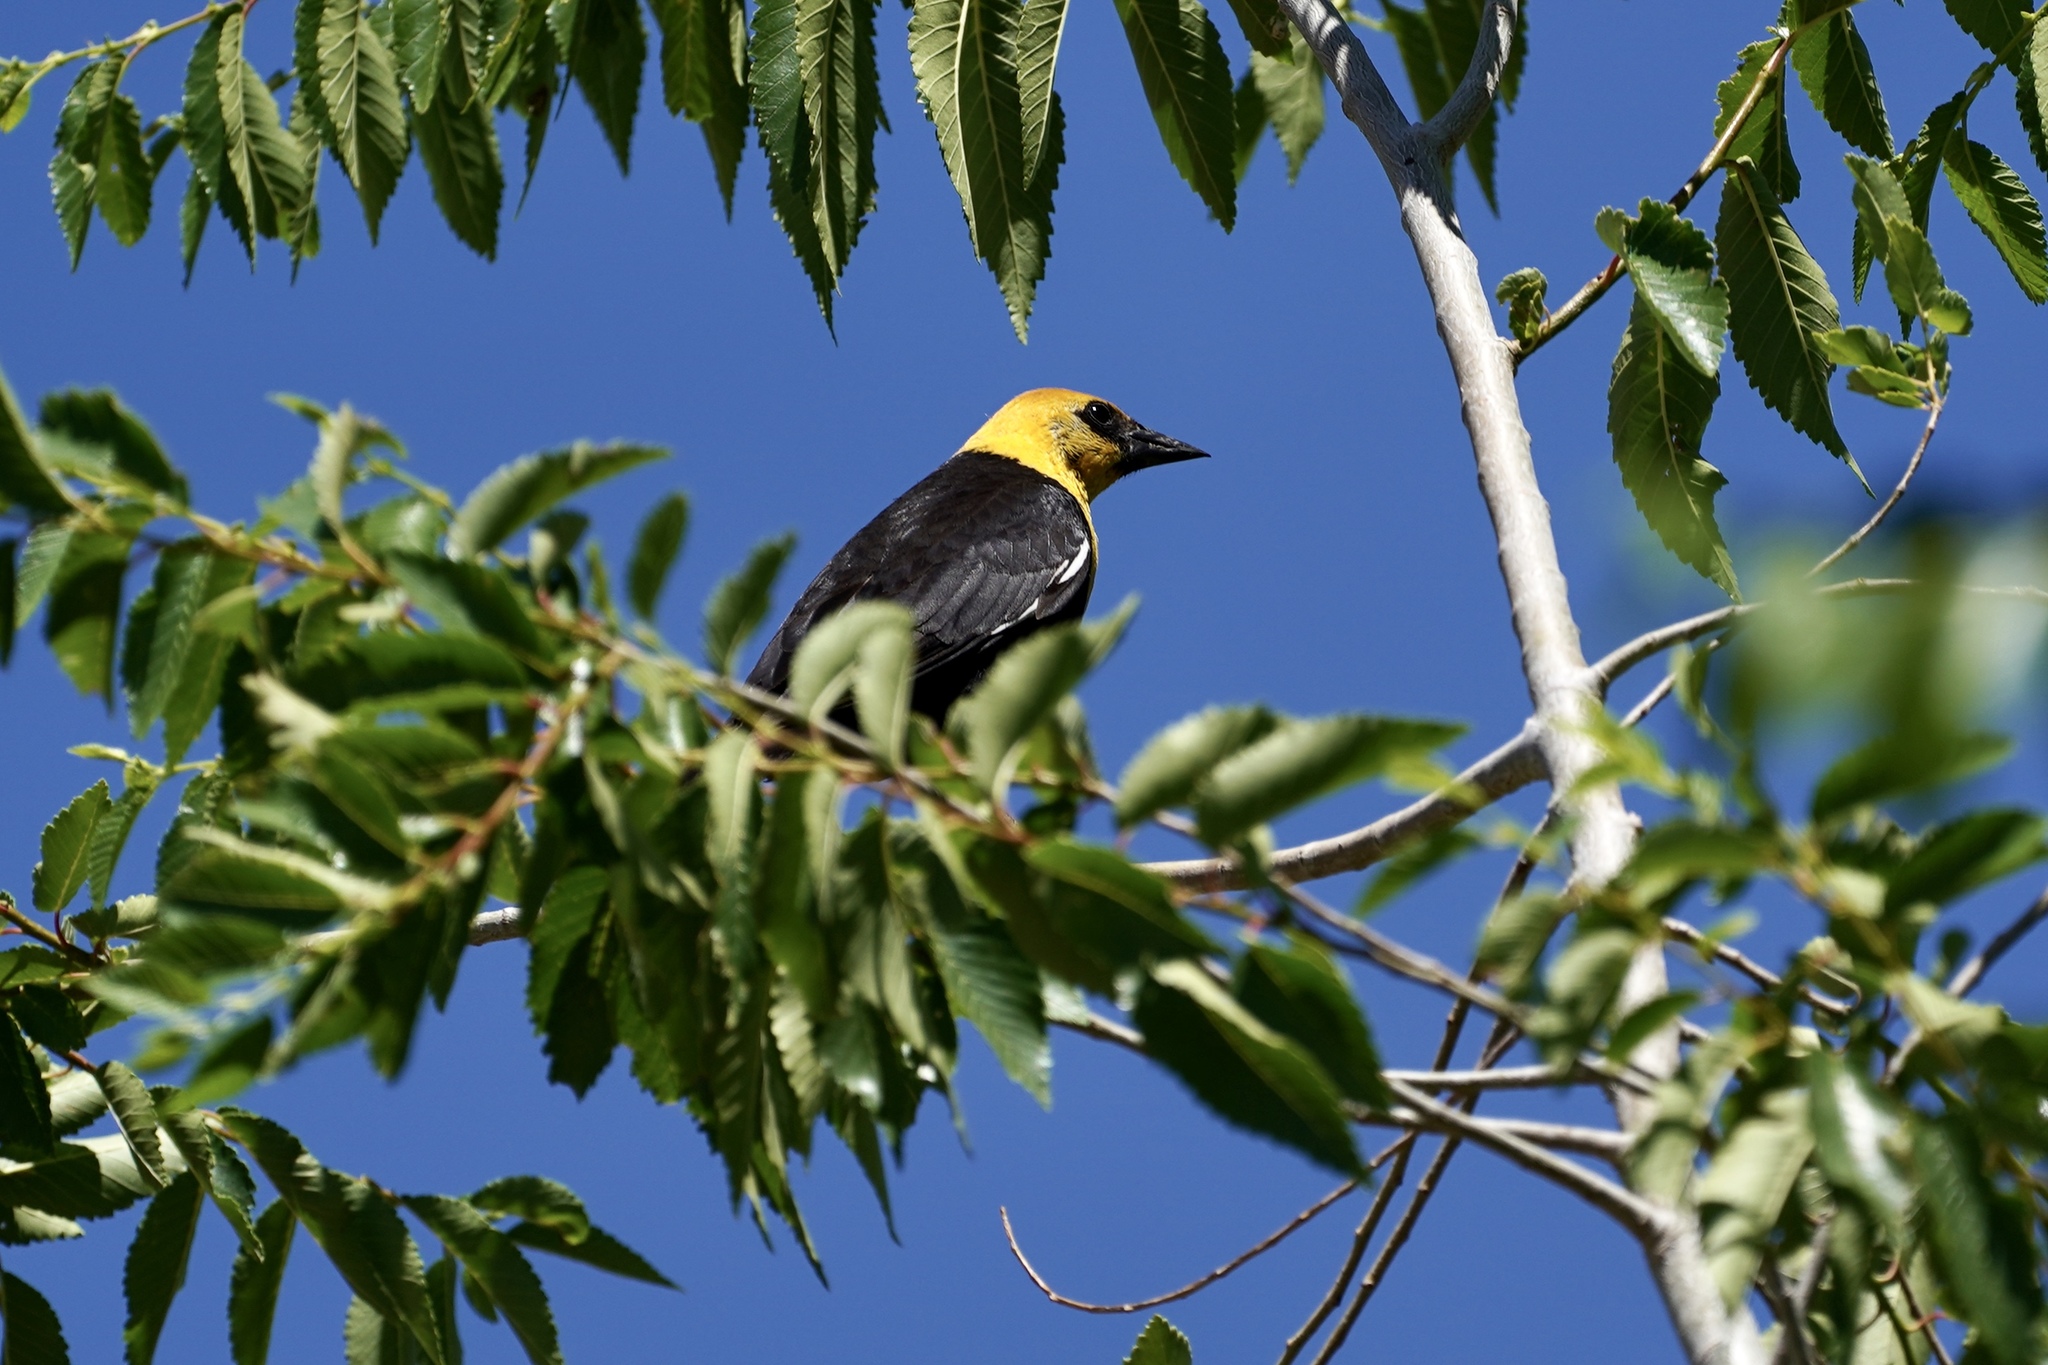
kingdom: Animalia
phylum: Chordata
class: Aves
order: Passeriformes
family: Icteridae
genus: Xanthocephalus
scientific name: Xanthocephalus xanthocephalus
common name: Yellow-headed blackbird
